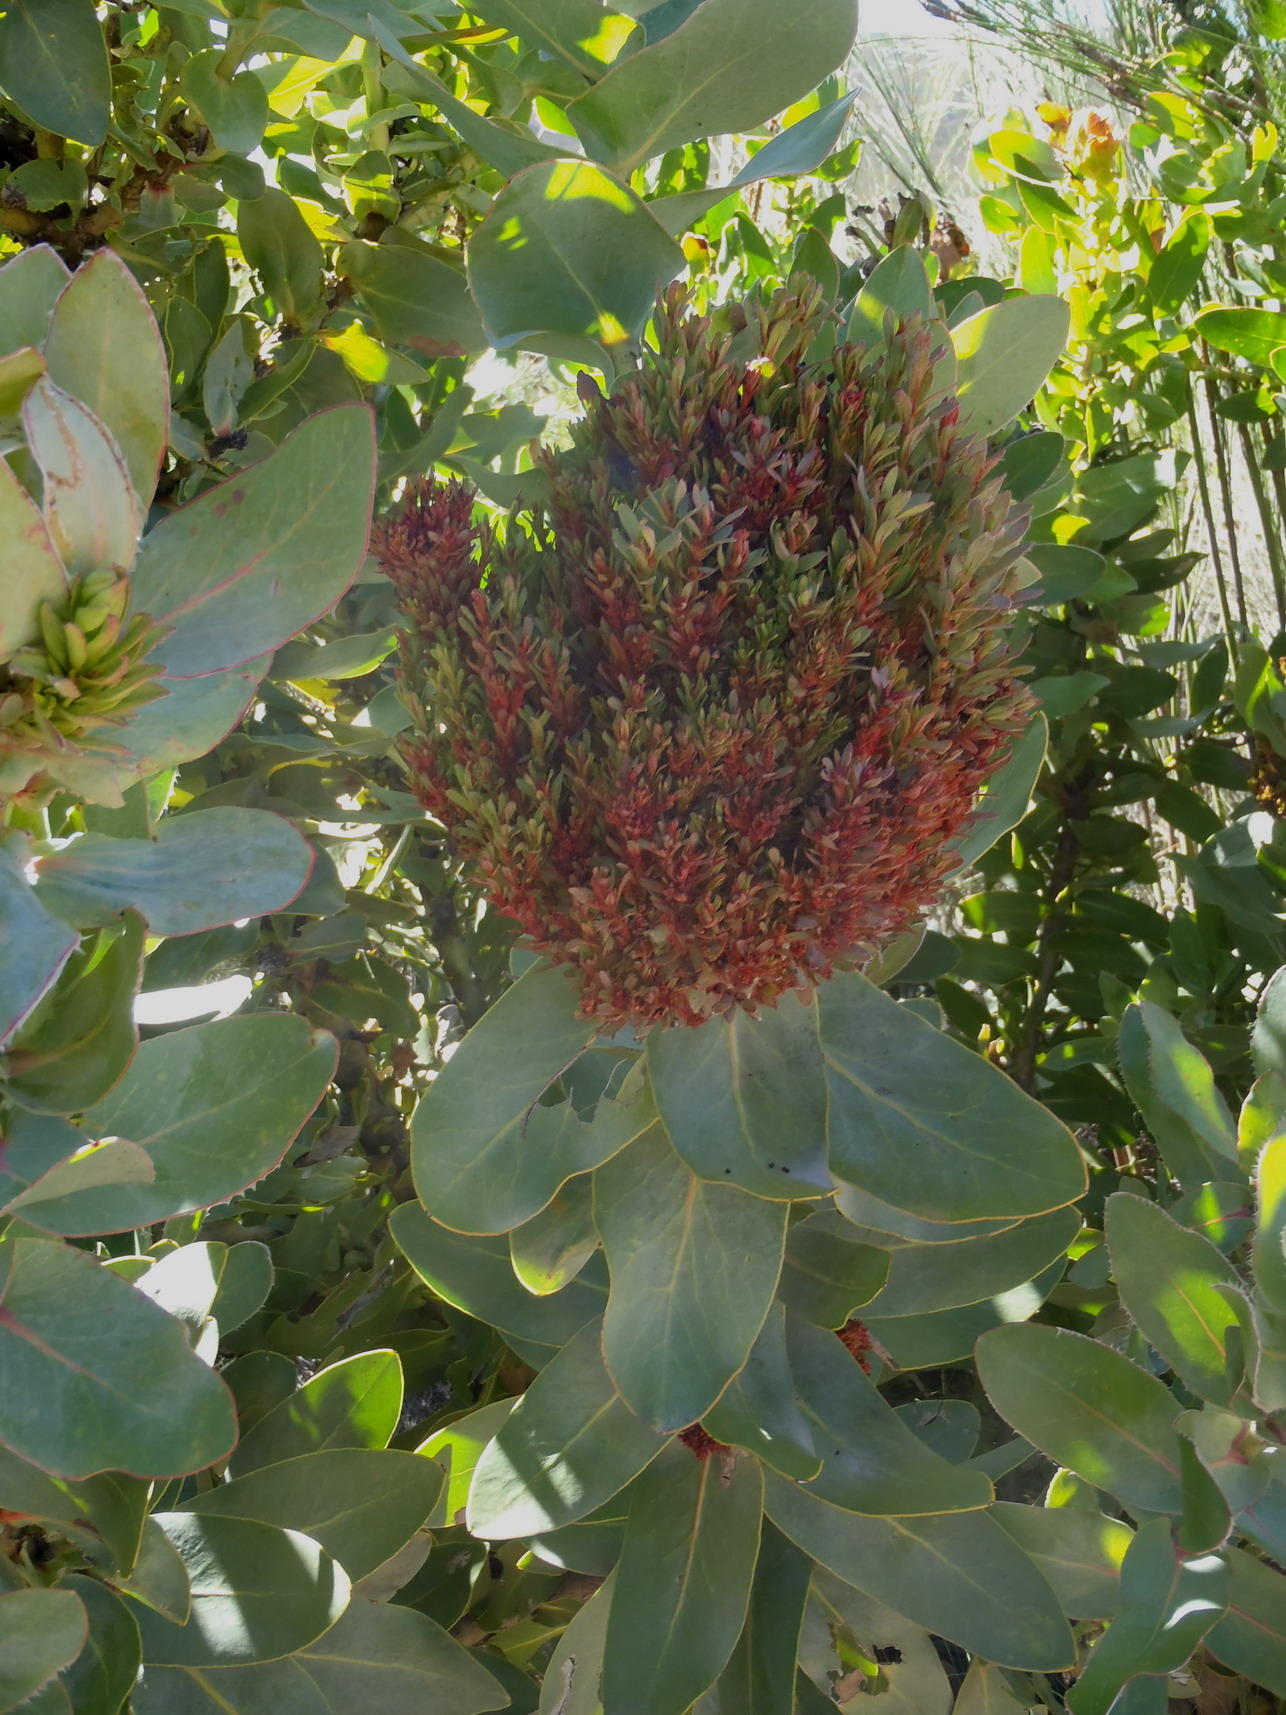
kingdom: Bacteria
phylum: Firmicutes
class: Bacilli
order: Acholeplasmatales
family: Acholeplasmataceae
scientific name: Acholeplasmataceae
